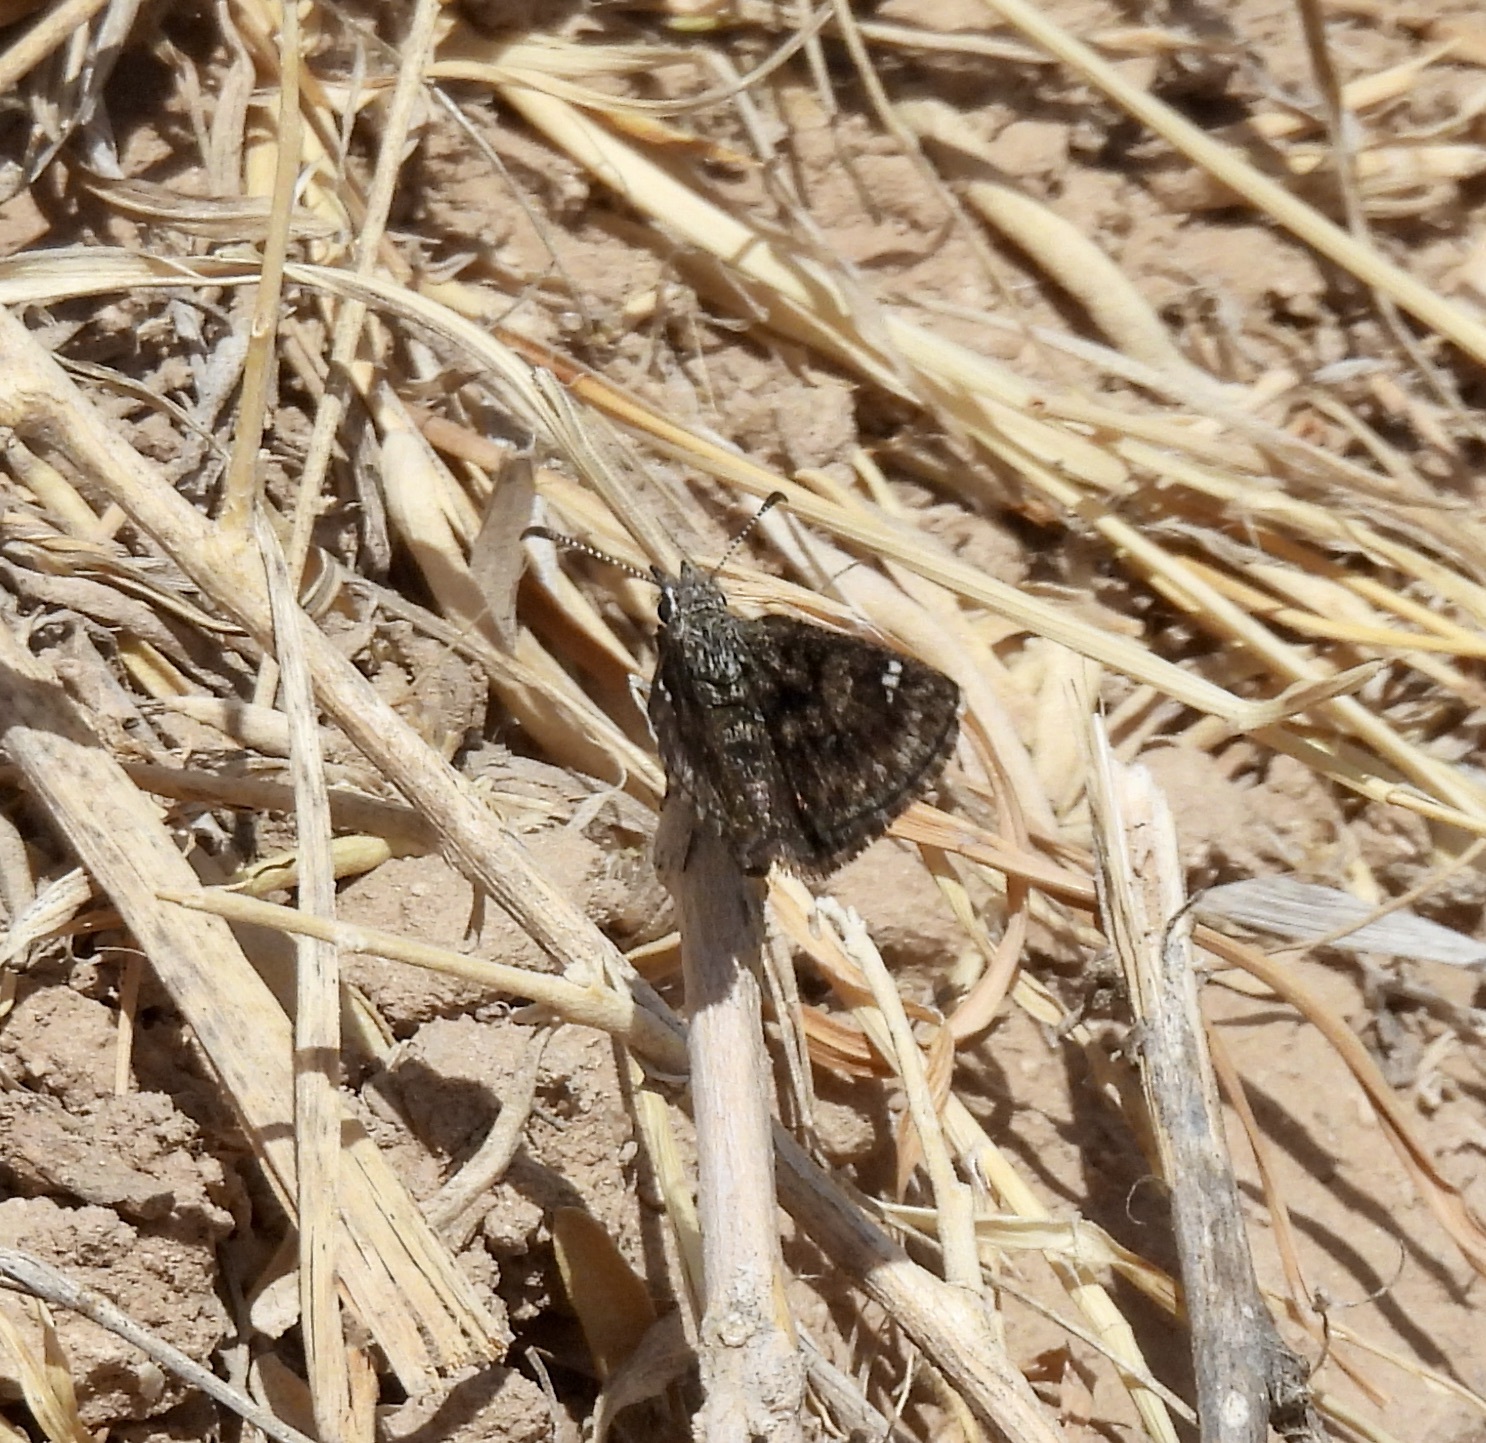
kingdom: Animalia
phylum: Arthropoda
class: Insecta
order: Lepidoptera
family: Hesperiidae
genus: Hesperopsis
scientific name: Hesperopsis alpheus
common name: Saltbush sootywing
